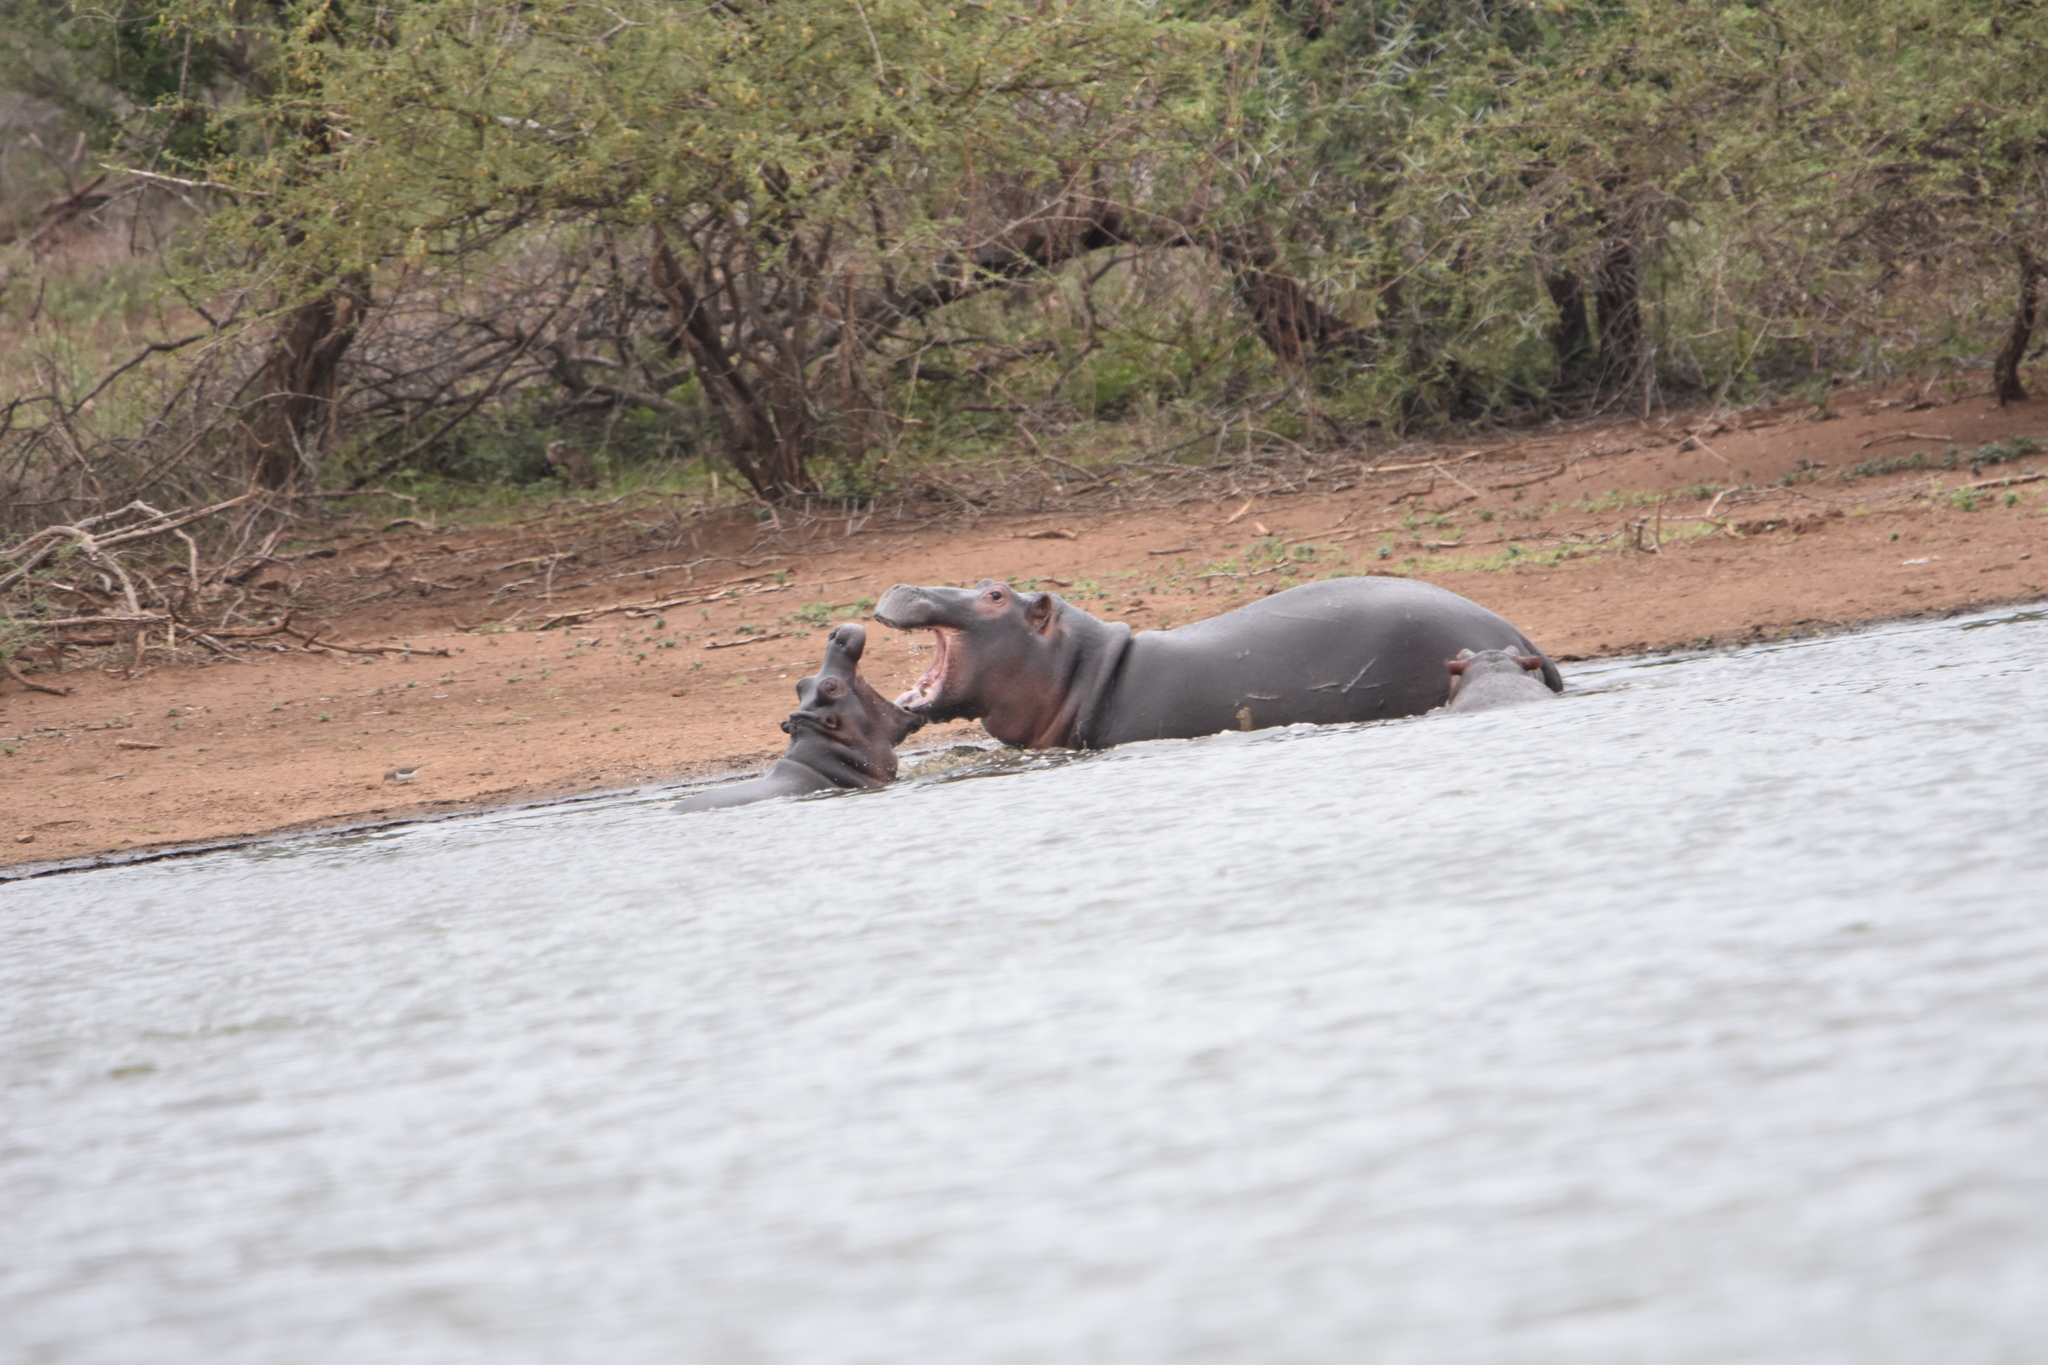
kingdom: Animalia
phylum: Chordata
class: Mammalia
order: Artiodactyla
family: Hippopotamidae
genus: Hippopotamus
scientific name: Hippopotamus amphibius
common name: Common hippopotamus
